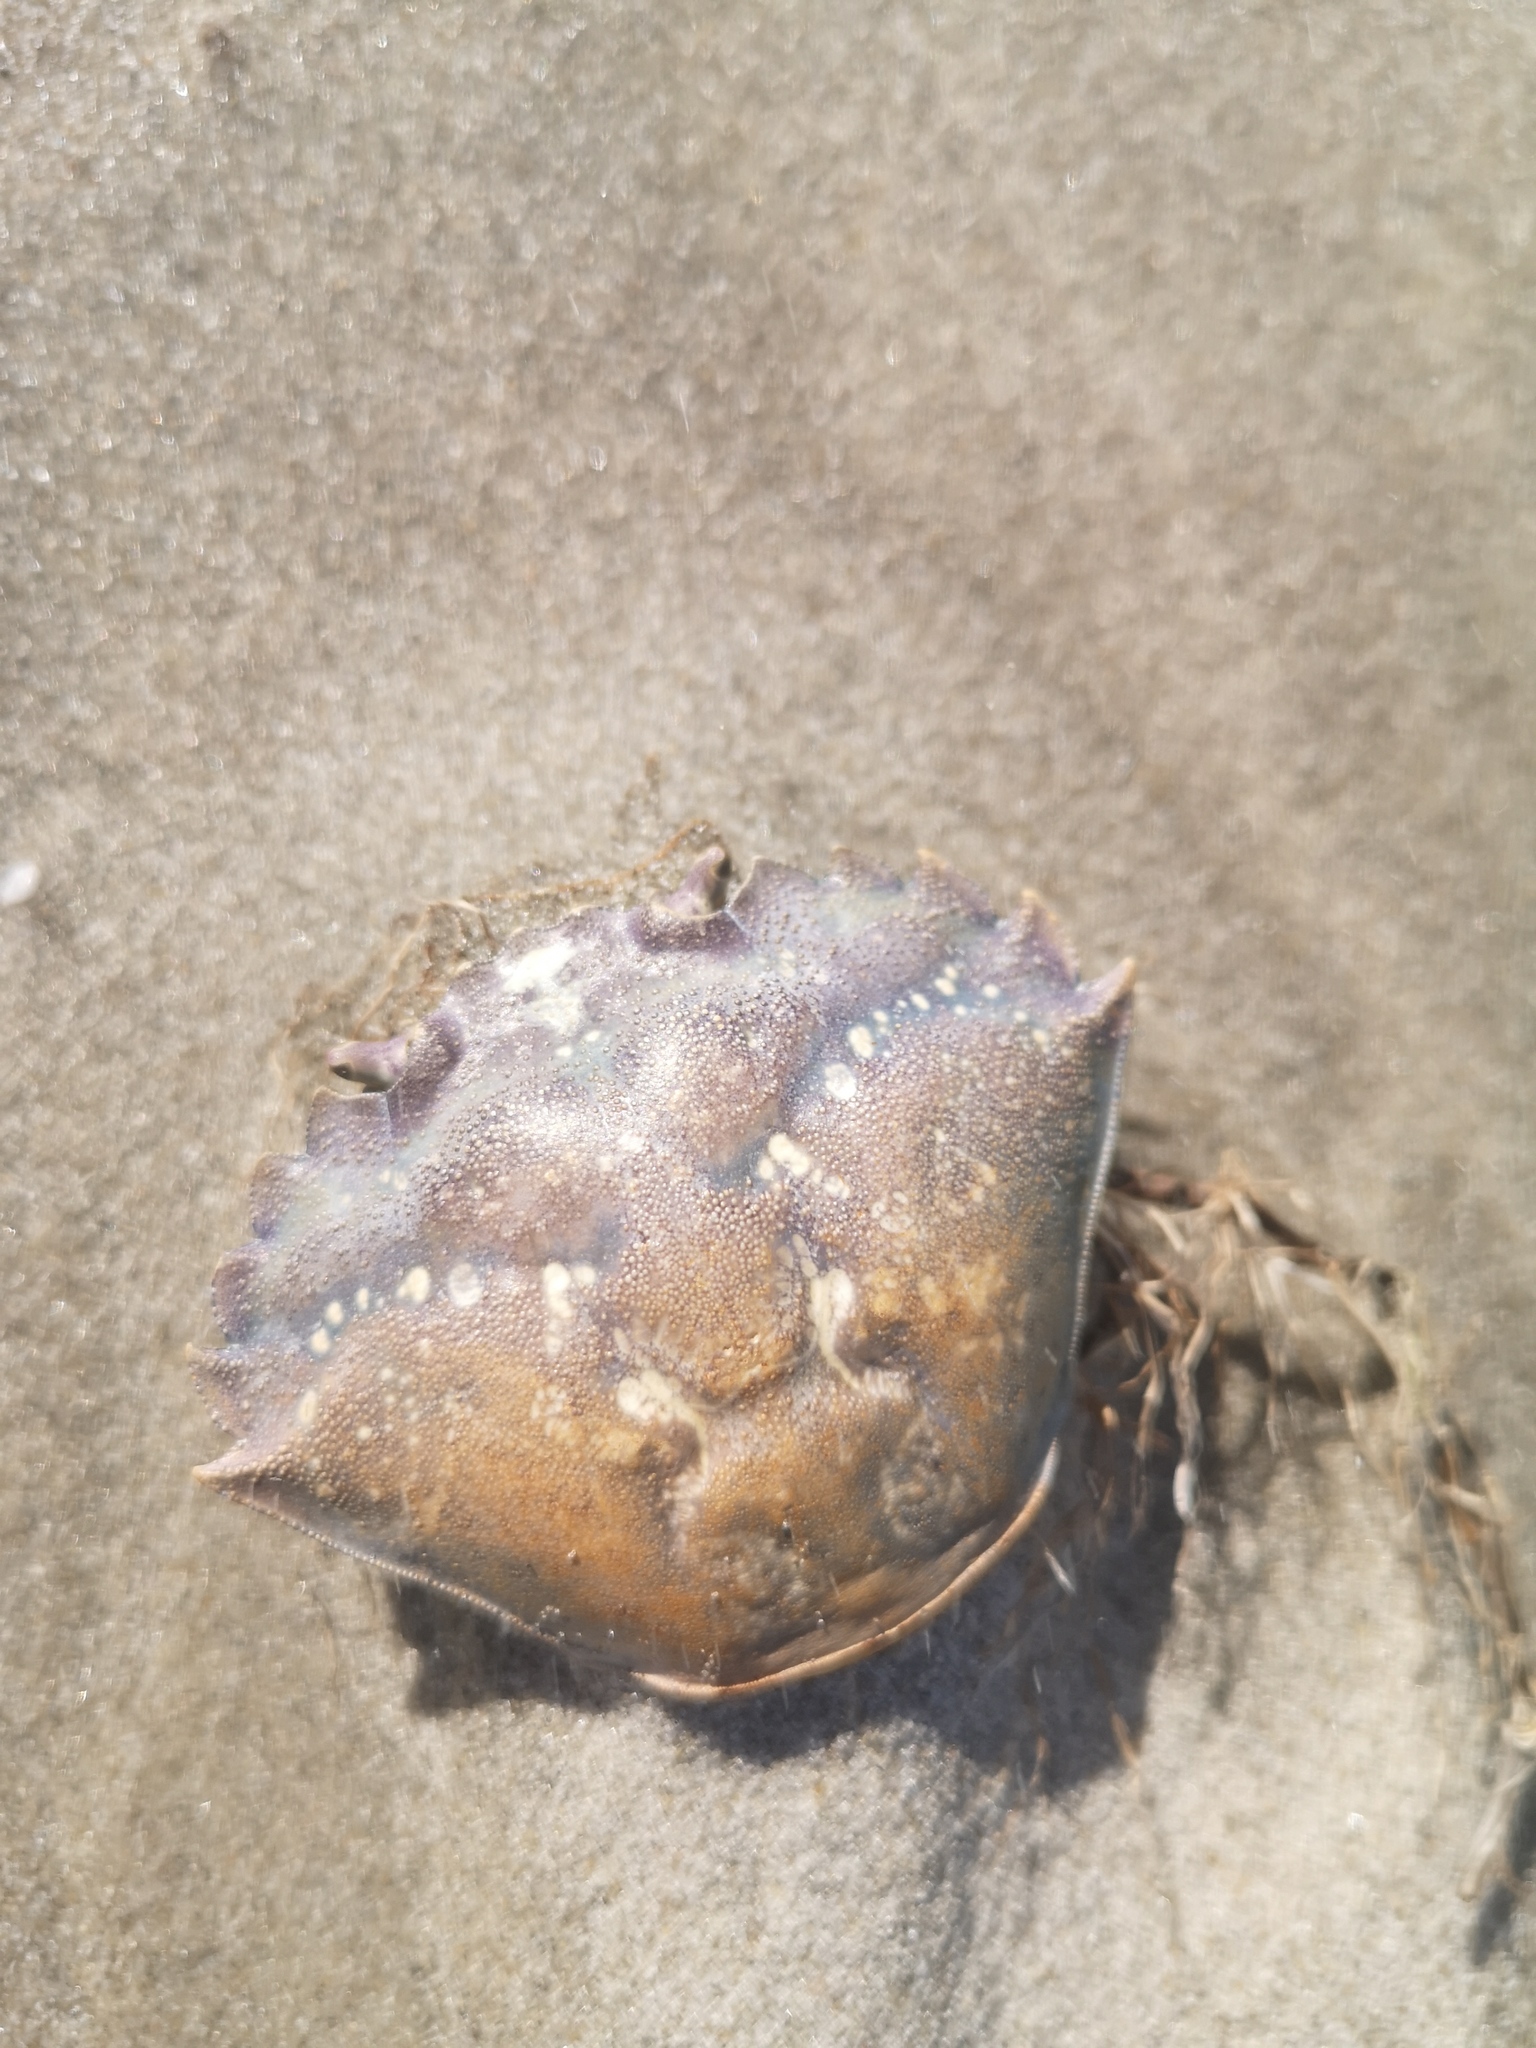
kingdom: Animalia
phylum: Arthropoda
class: Malacostraca
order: Decapoda
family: Carcinidae
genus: Carcinus
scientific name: Carcinus maenas
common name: European green crab
